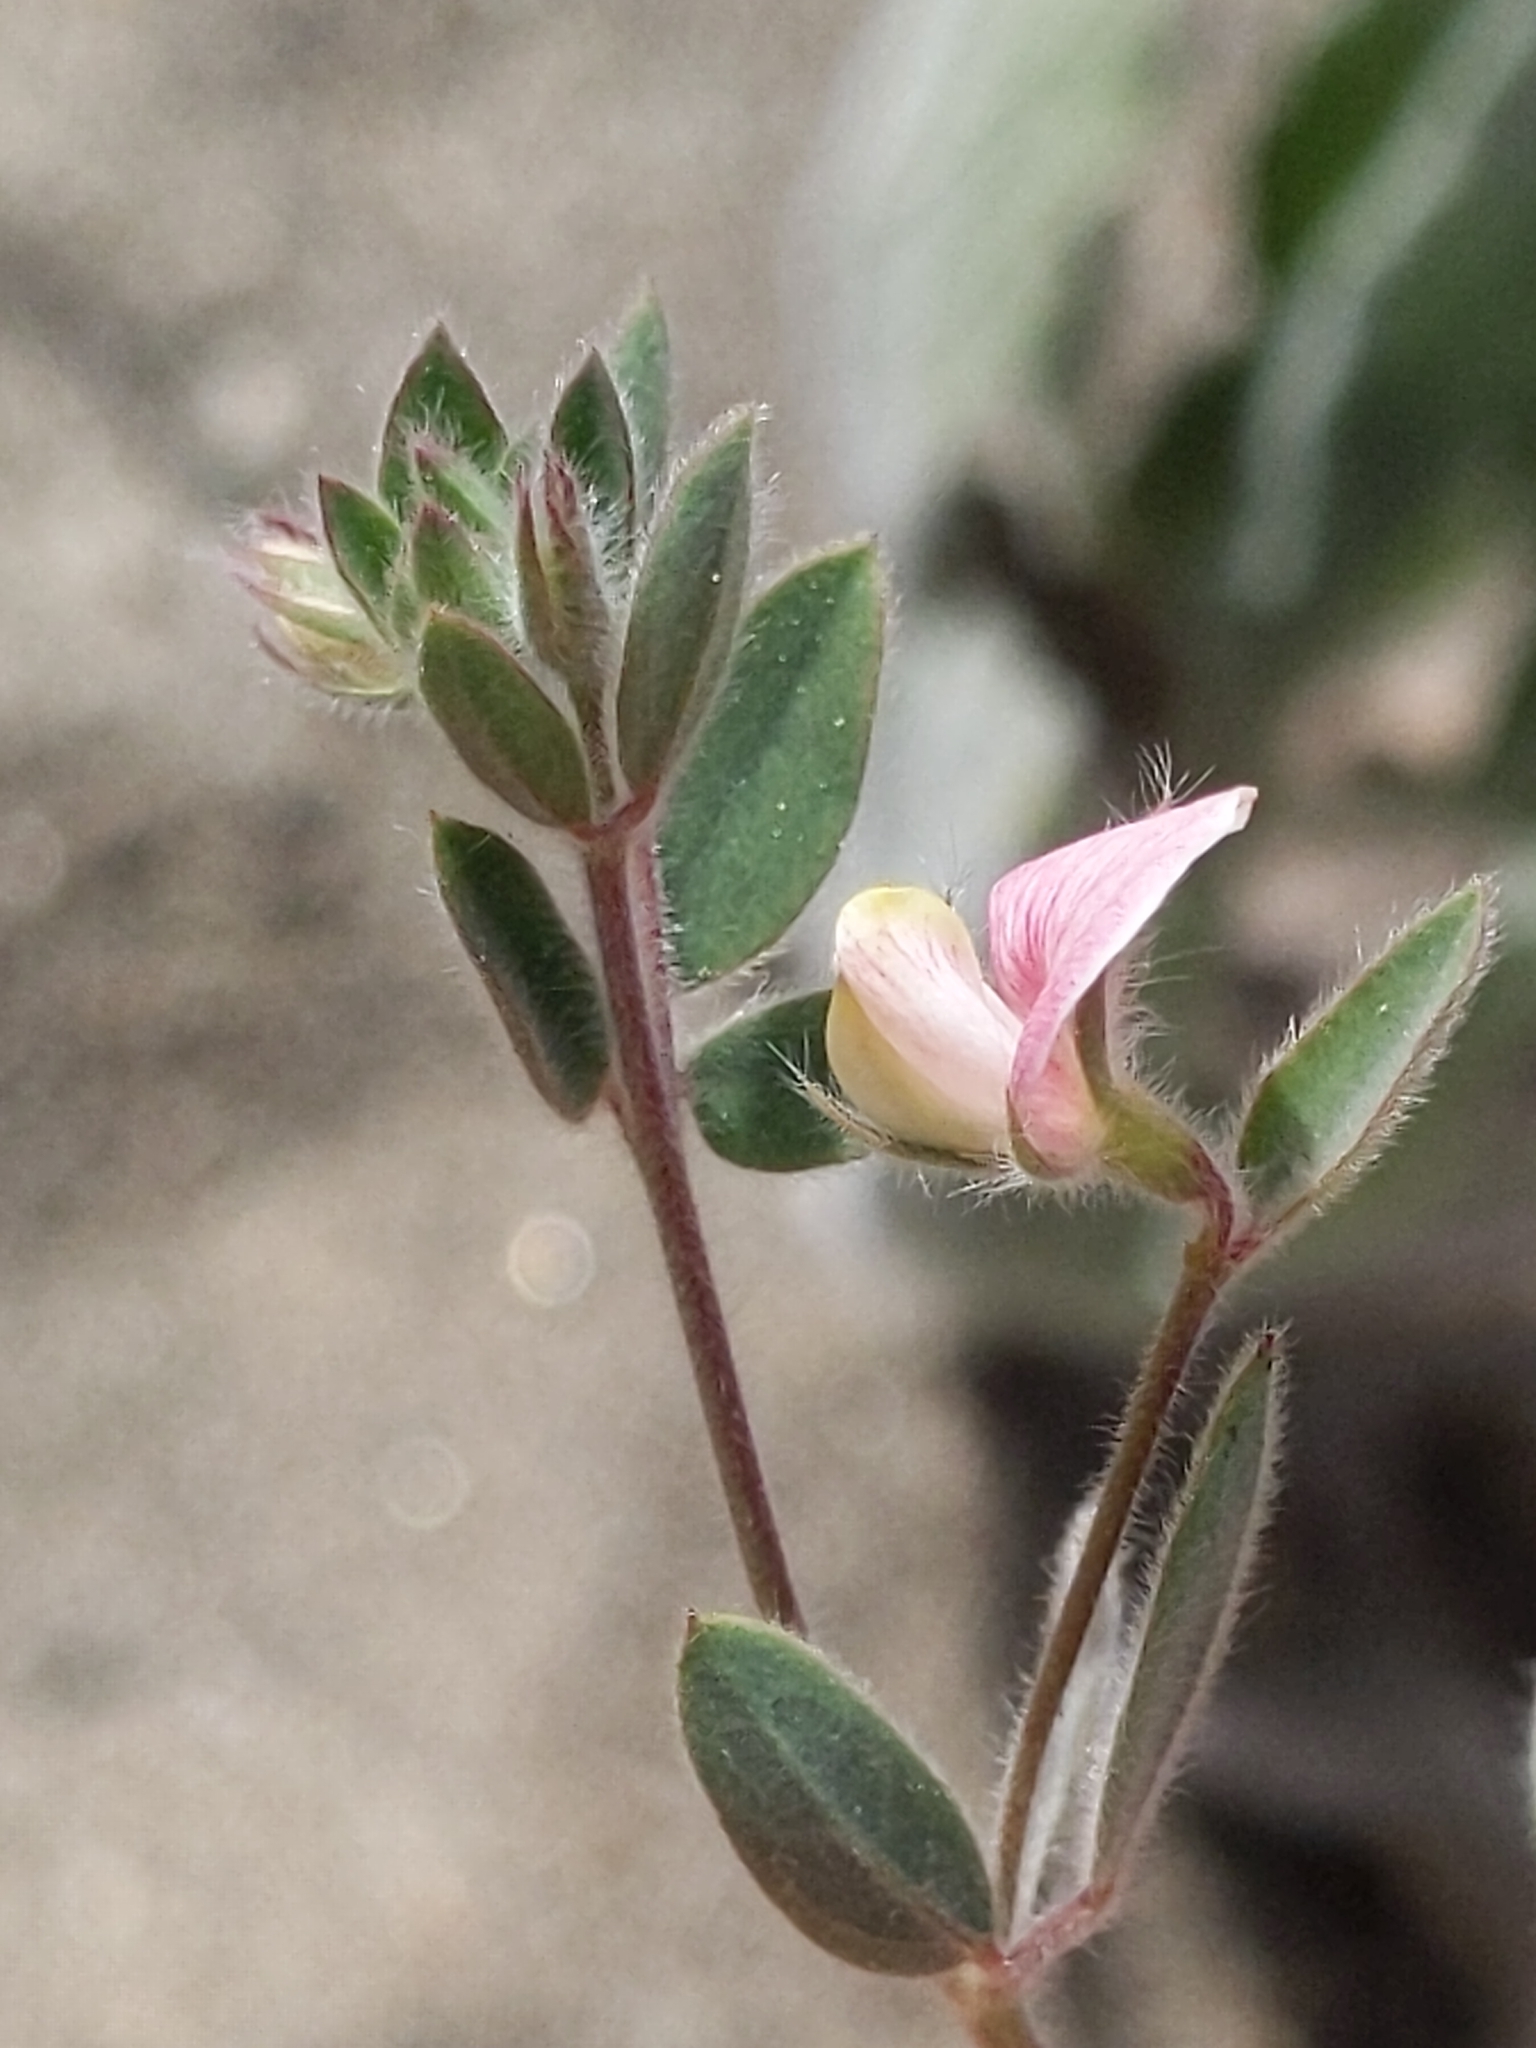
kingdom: Plantae
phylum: Tracheophyta
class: Magnoliopsida
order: Fabales
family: Fabaceae
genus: Acmispon
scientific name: Acmispon americanus
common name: American bird's-foot trefoil
